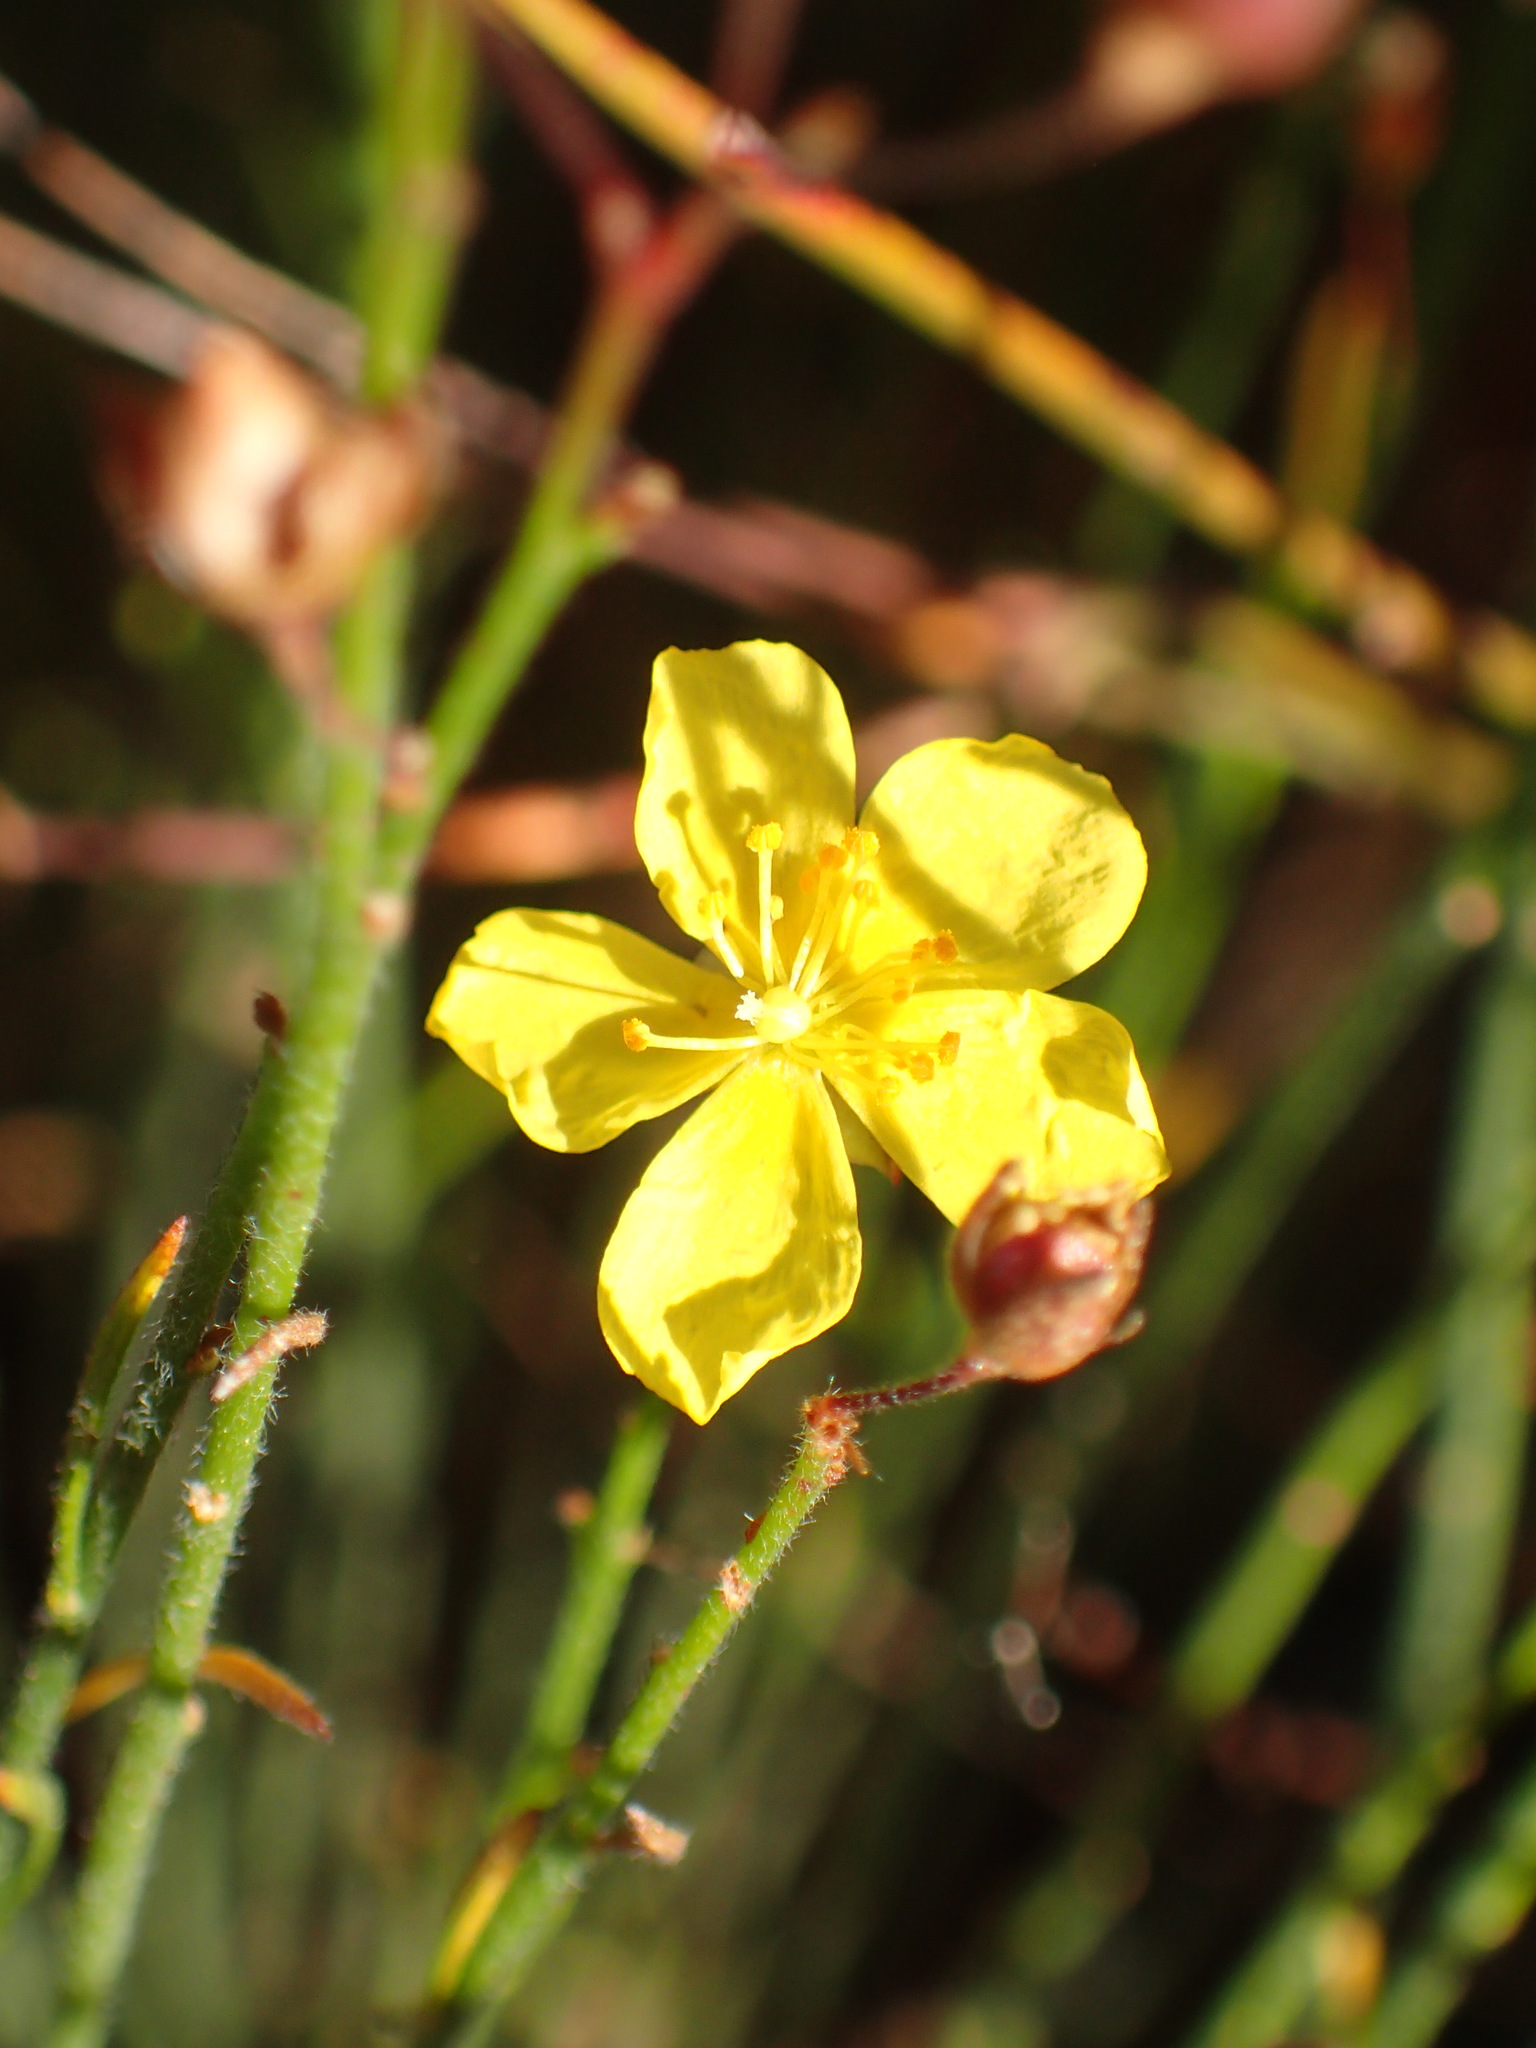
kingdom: Plantae
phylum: Tracheophyta
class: Magnoliopsida
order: Malvales
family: Cistaceae
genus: Crocanthemum
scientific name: Crocanthemum scoparium
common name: Broom-rose
